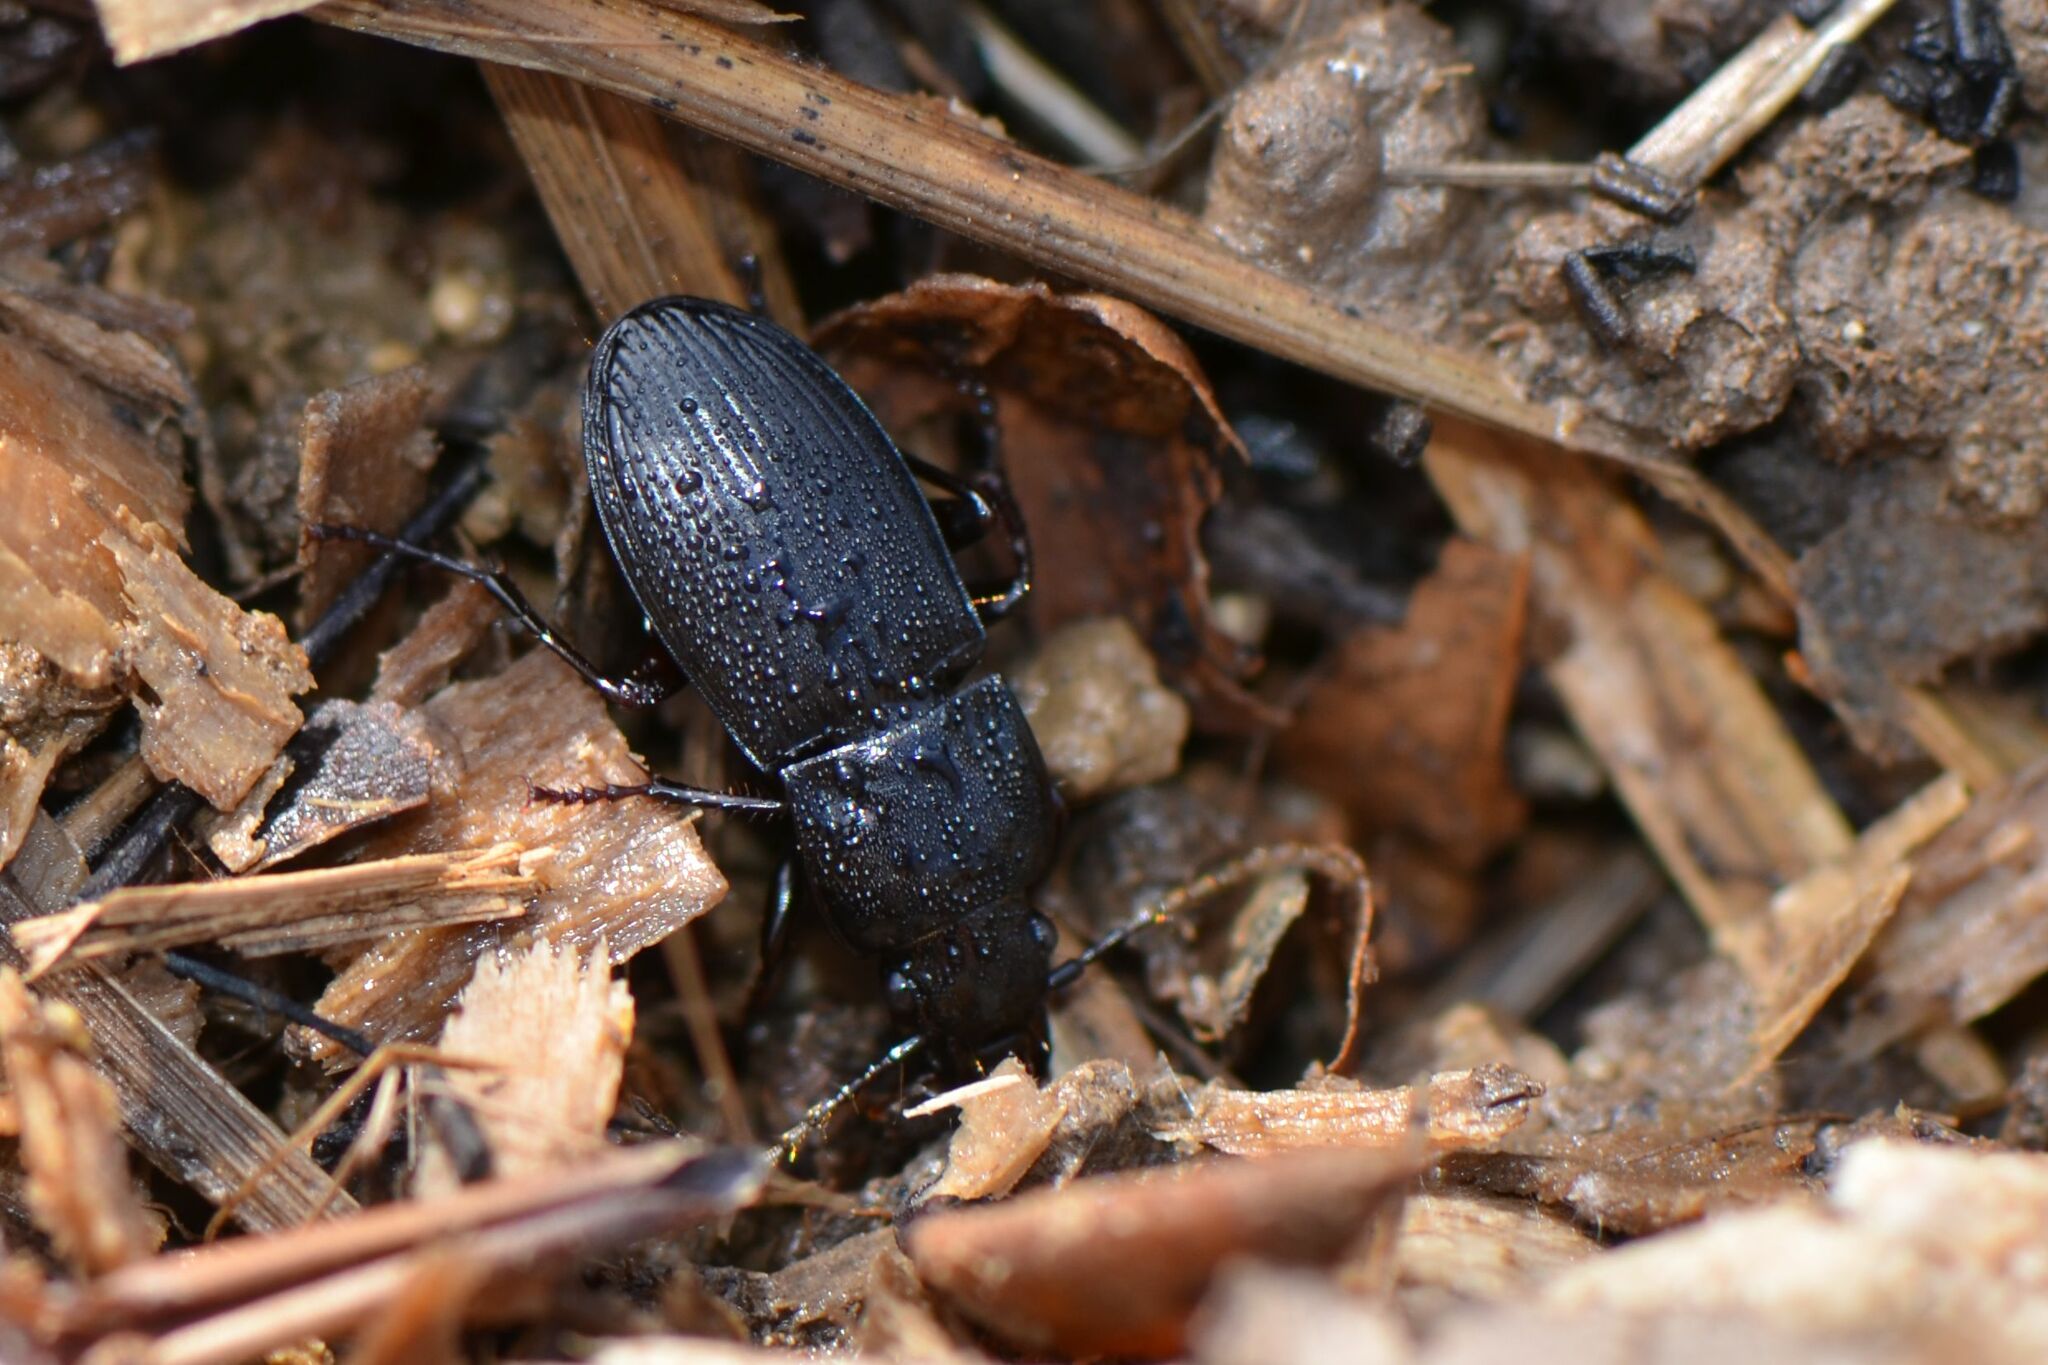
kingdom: Animalia
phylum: Arthropoda
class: Insecta
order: Coleoptera
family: Carabidae
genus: Abax
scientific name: Abax parallelus
